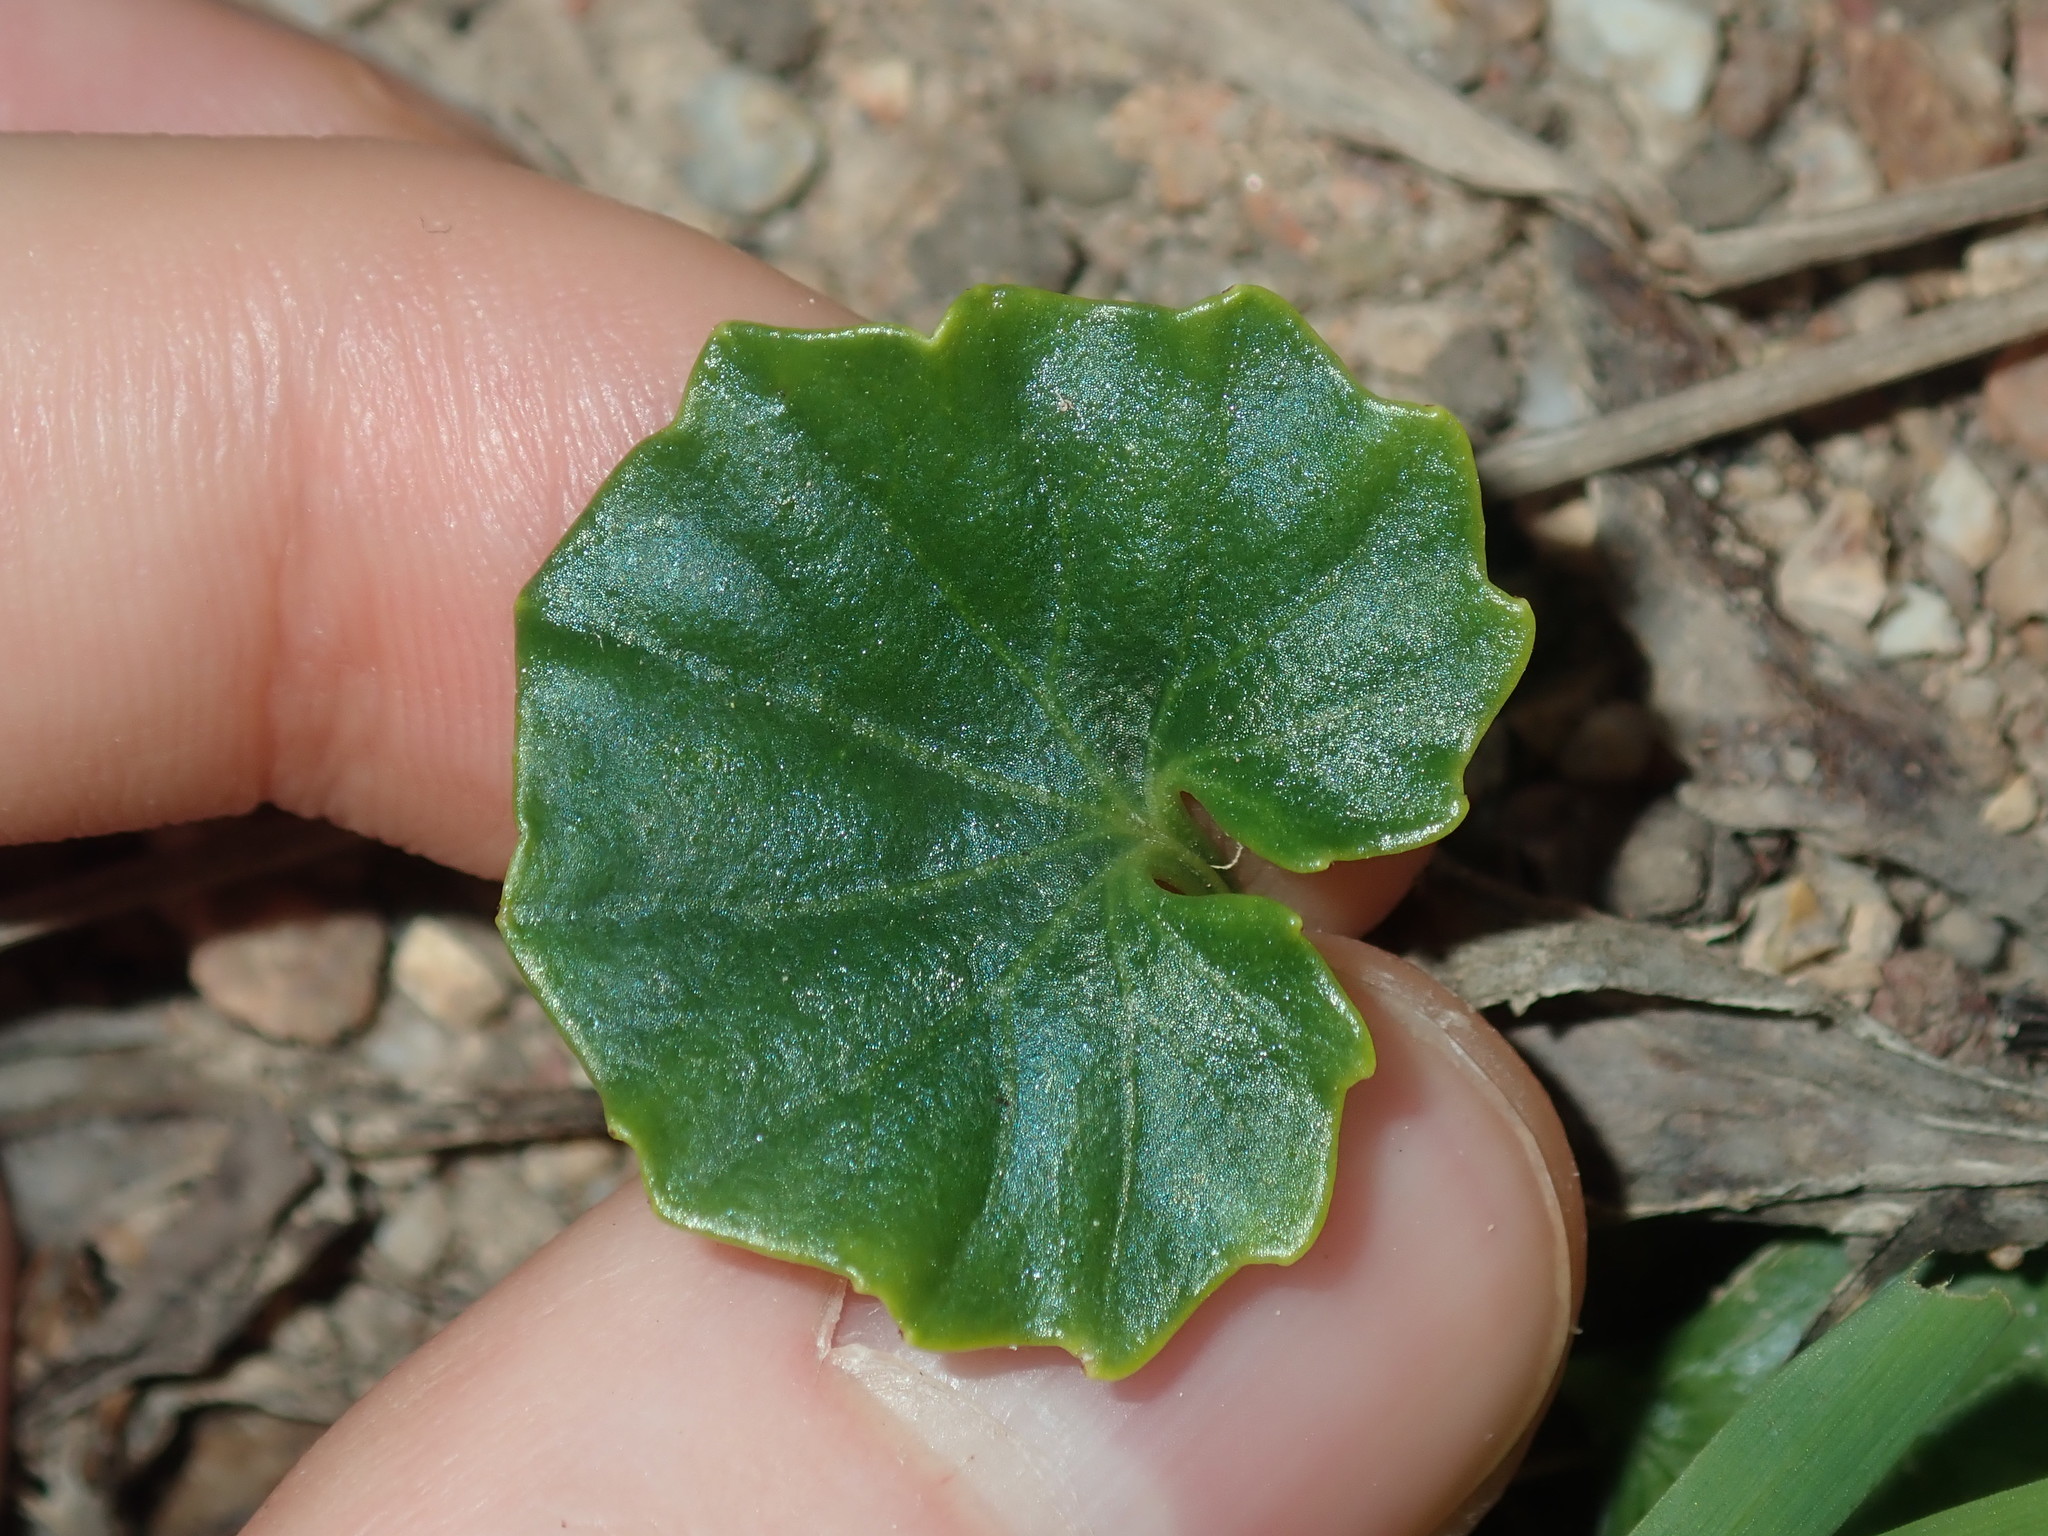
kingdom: Plantae
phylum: Tracheophyta
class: Magnoliopsida
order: Malpighiales
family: Violaceae
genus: Viola
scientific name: Viola banksii
